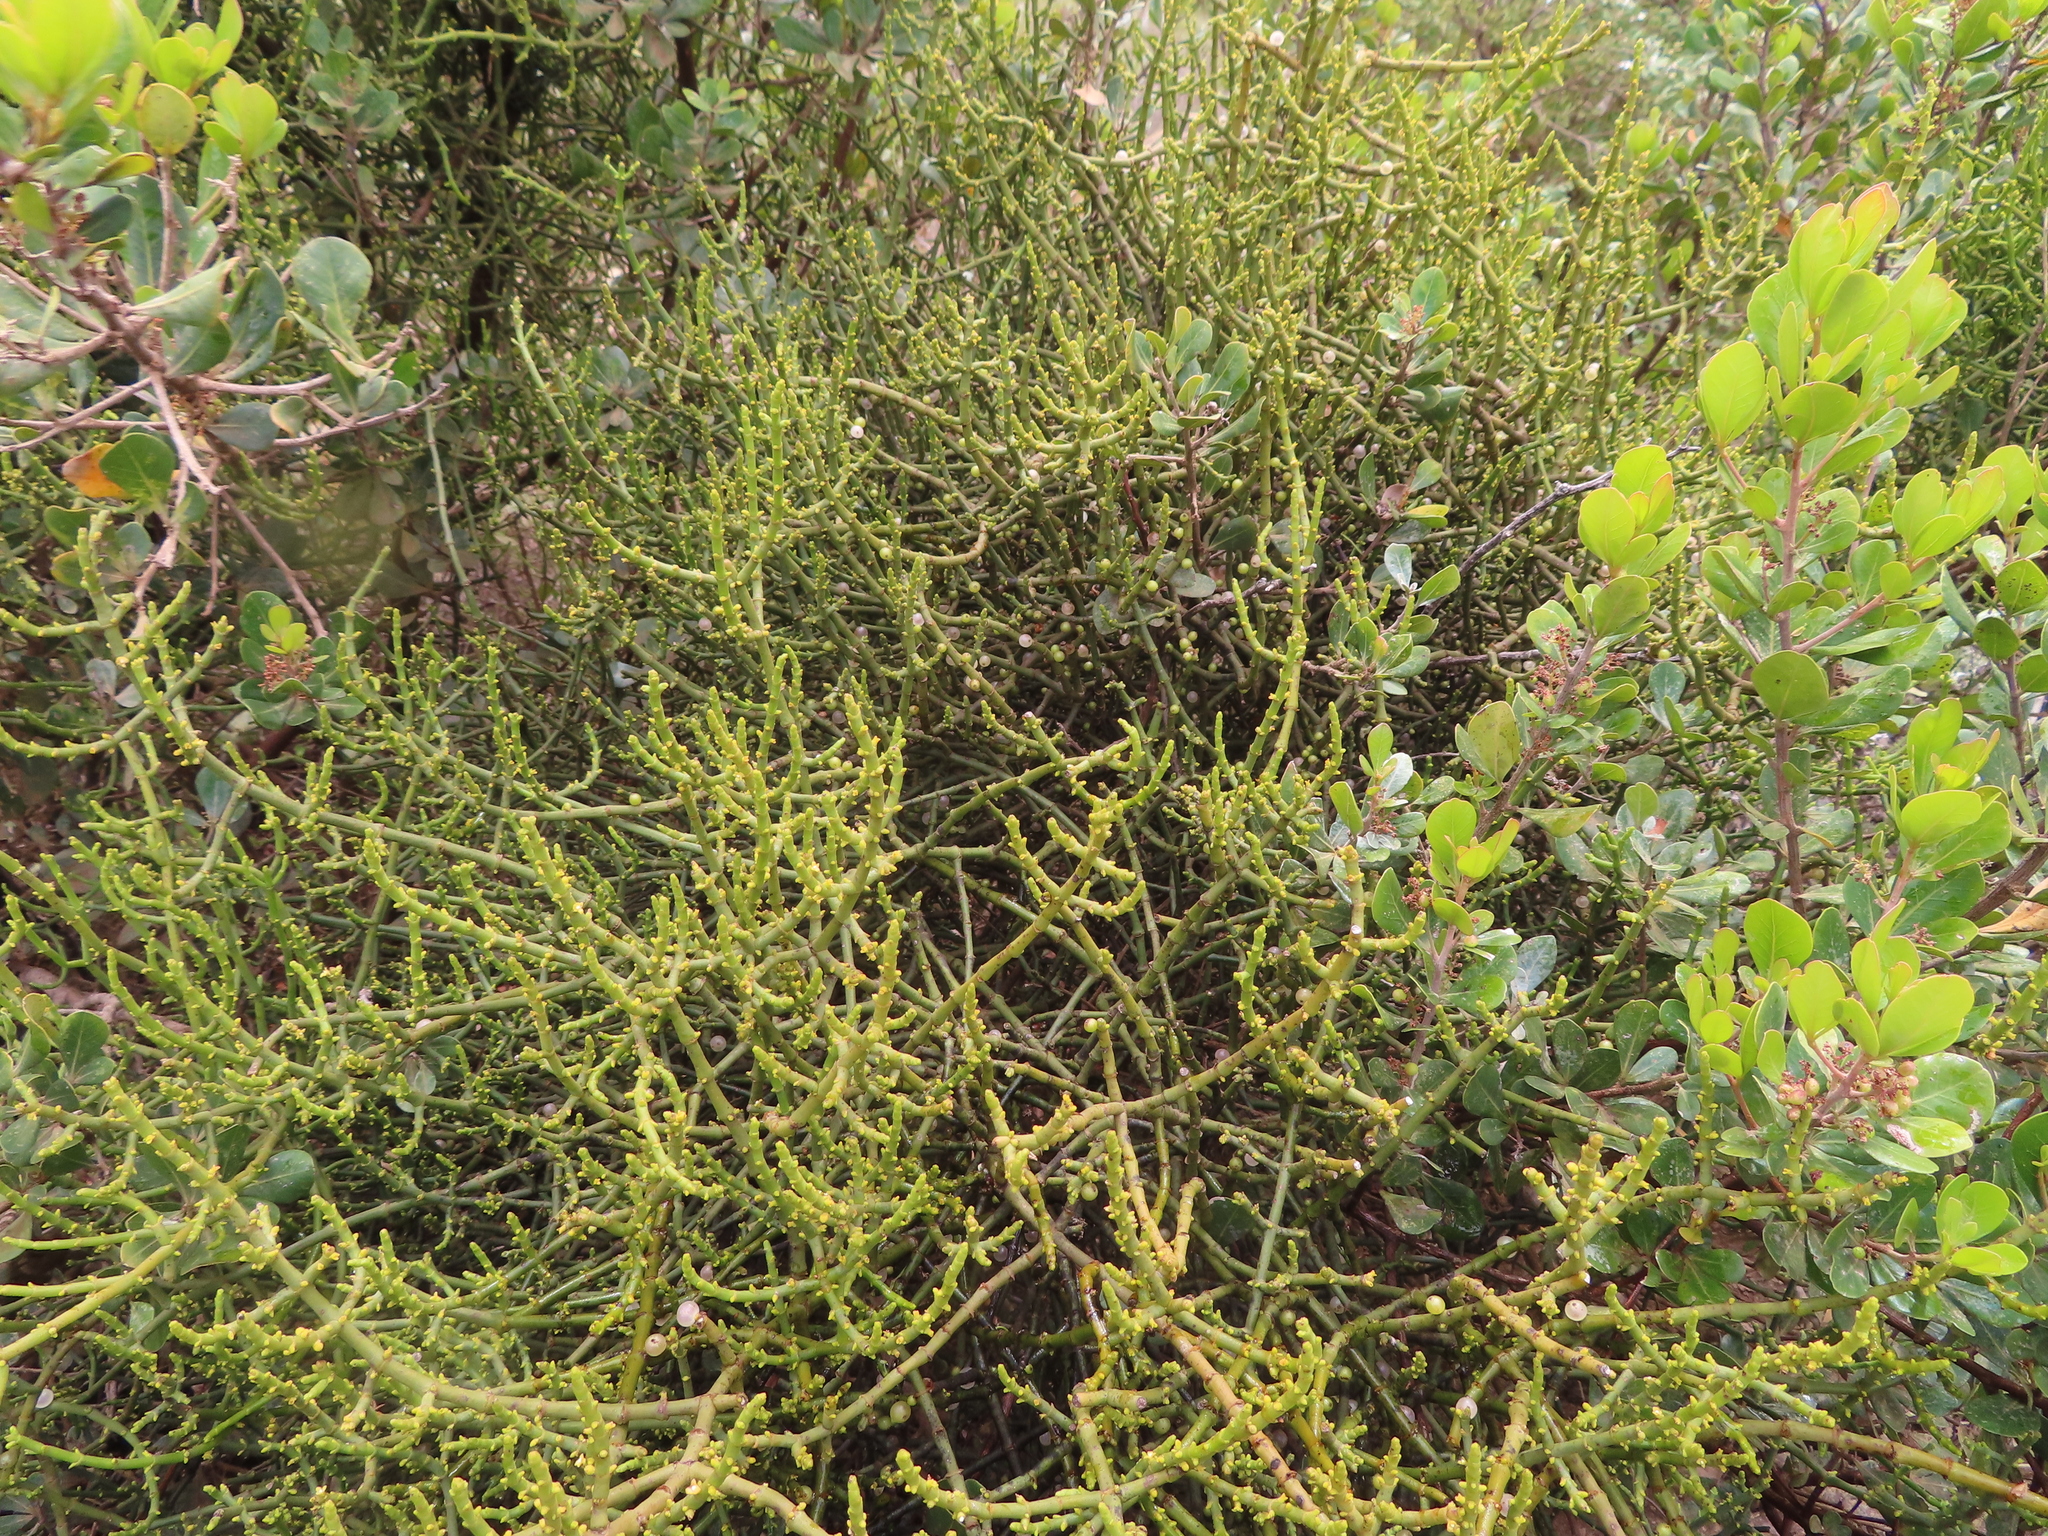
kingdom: Plantae
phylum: Tracheophyta
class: Magnoliopsida
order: Santalales
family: Viscaceae
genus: Viscum
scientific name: Viscum capense
